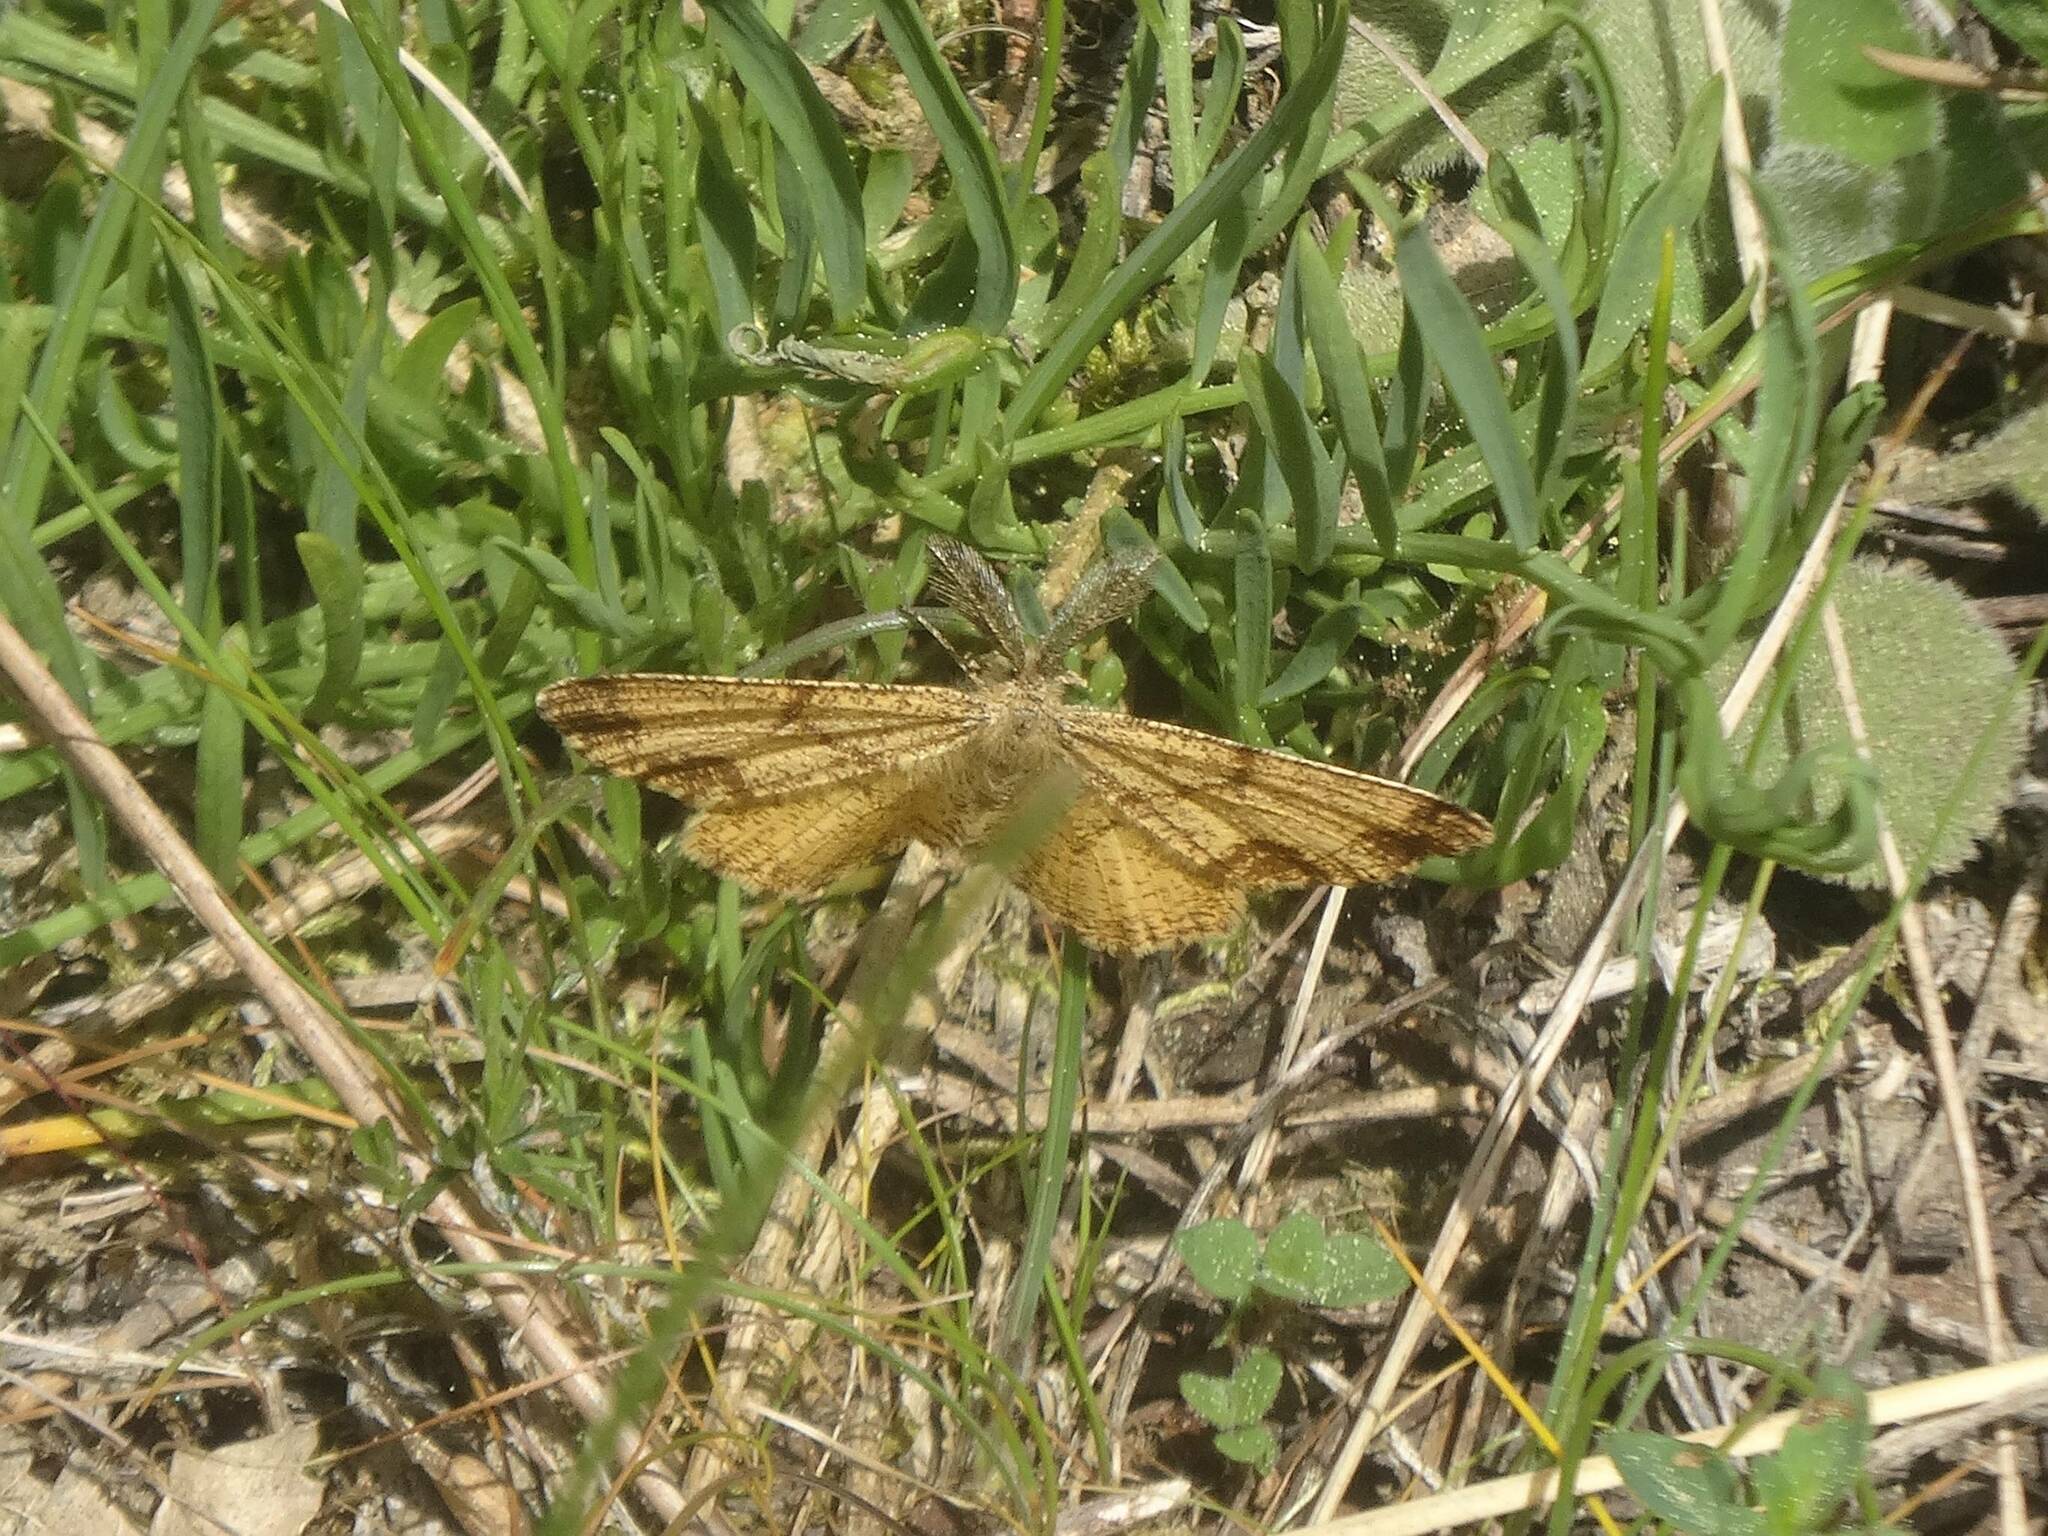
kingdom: Animalia
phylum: Arthropoda
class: Insecta
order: Lepidoptera
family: Geometridae
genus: Ematurga
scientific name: Ematurga atomaria
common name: Common heath
